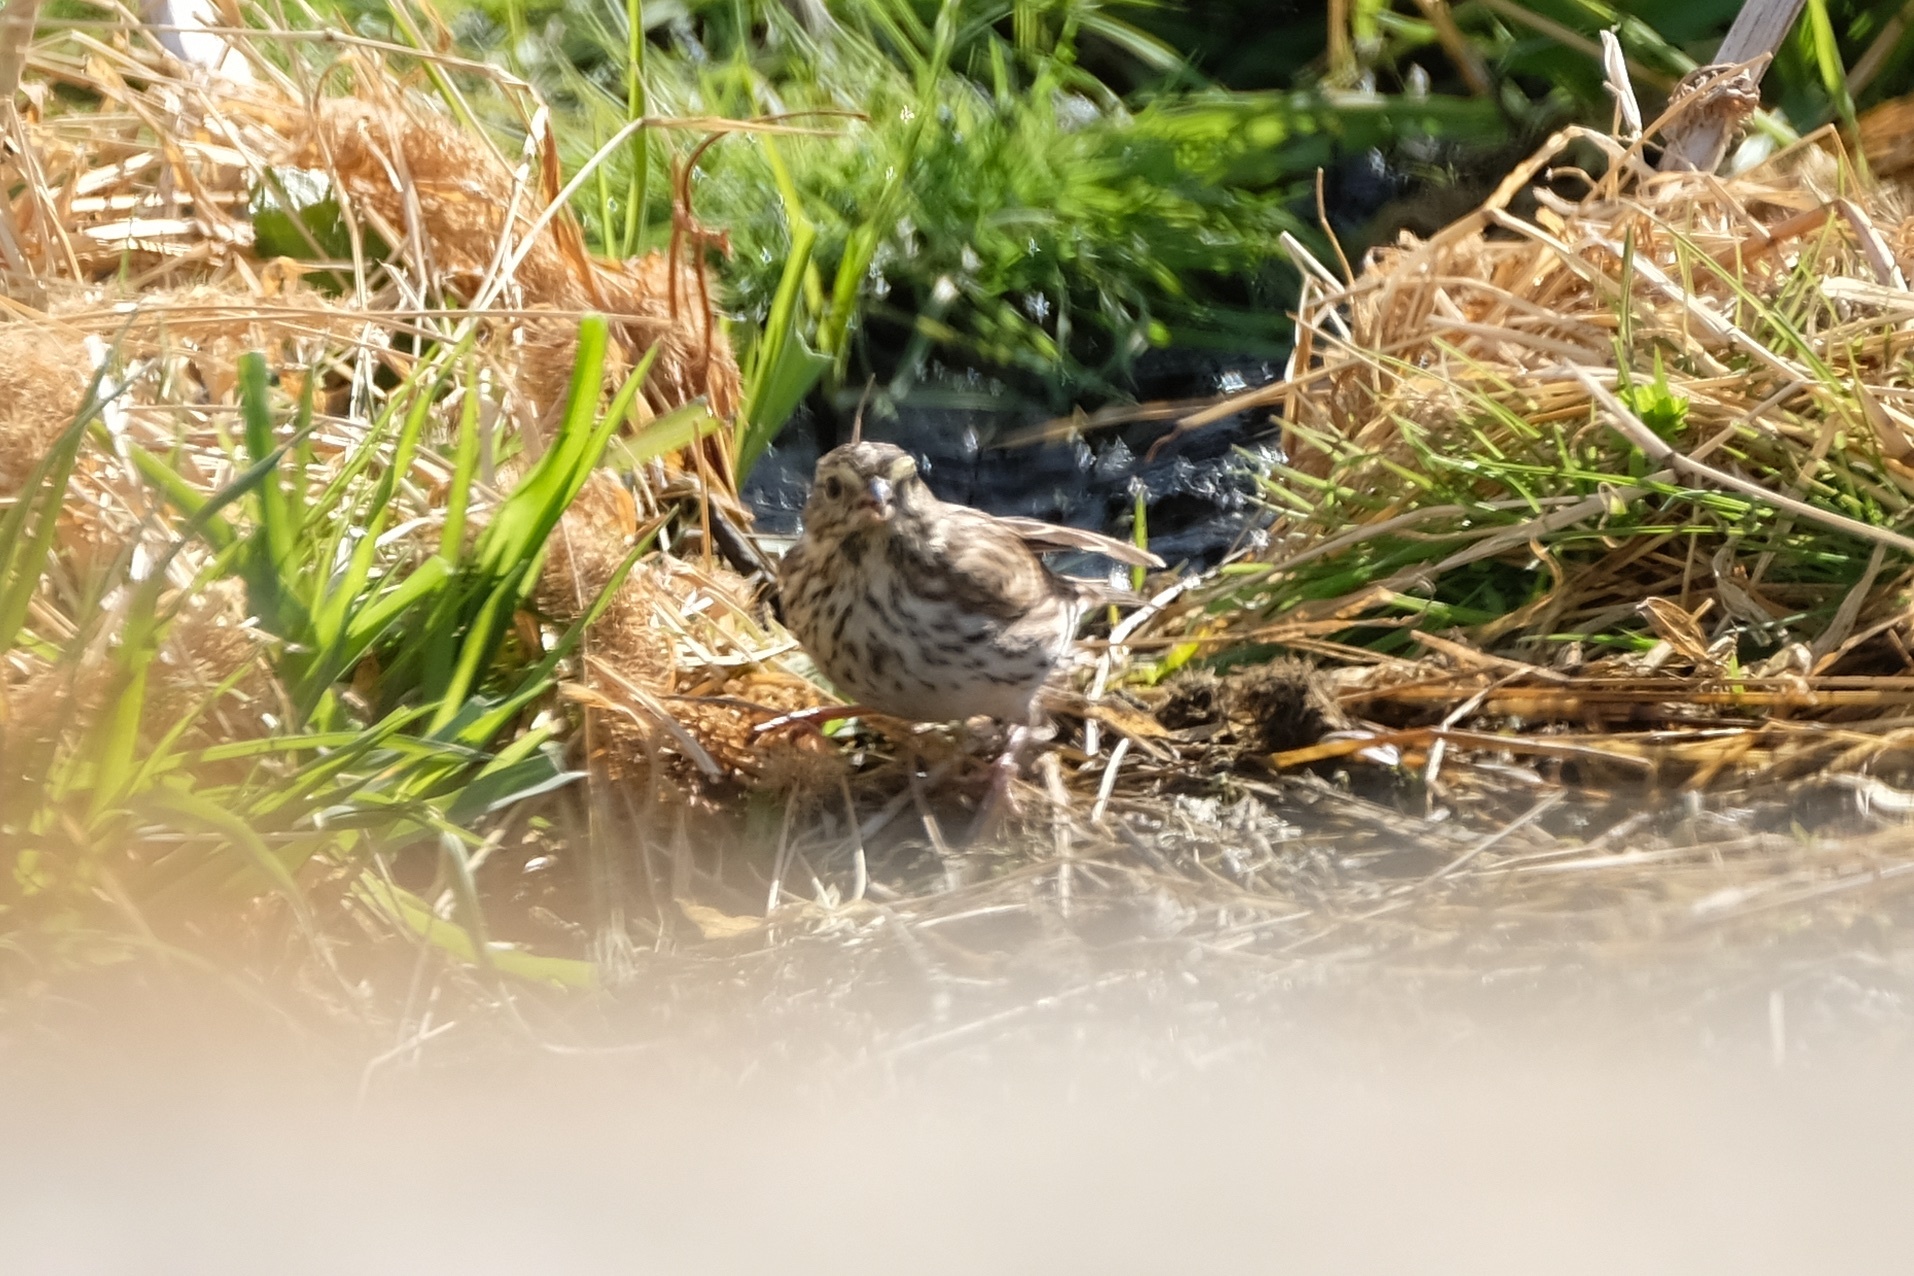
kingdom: Animalia
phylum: Chordata
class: Aves
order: Passeriformes
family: Passerellidae
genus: Passerculus
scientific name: Passerculus sandwichensis
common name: Savannah sparrow
